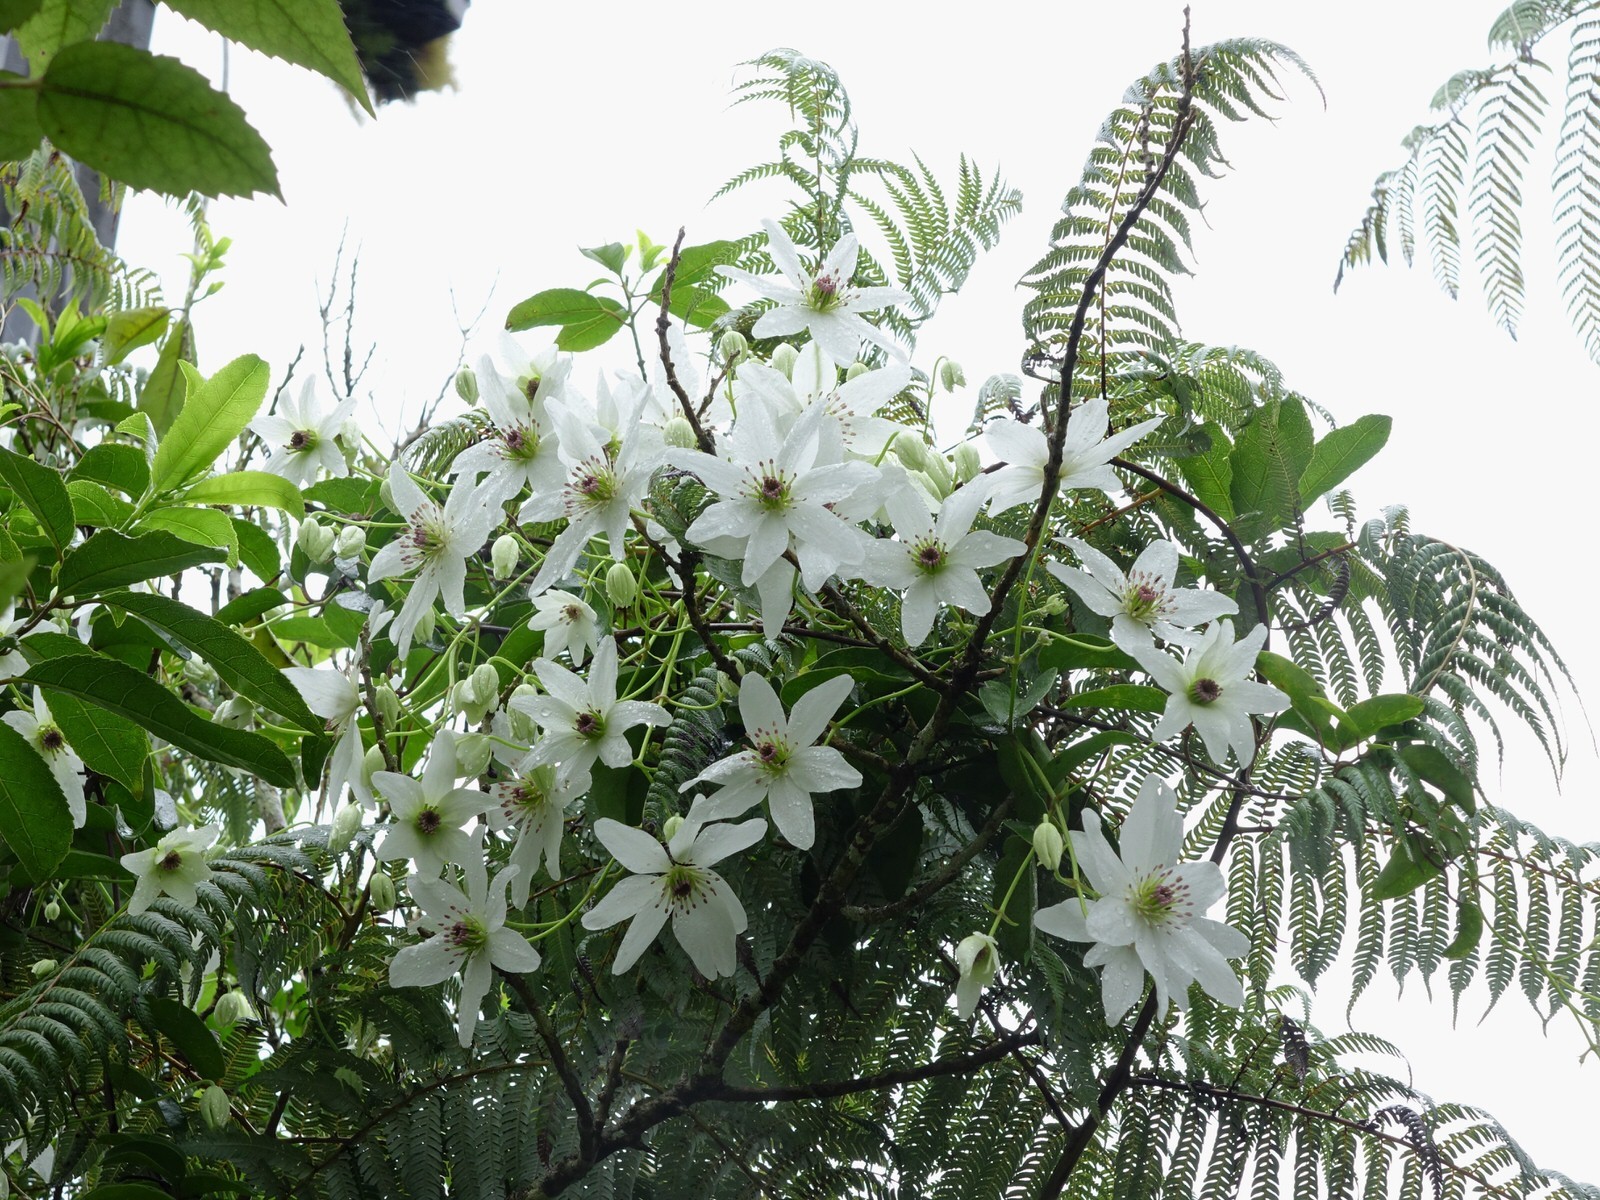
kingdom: Plantae
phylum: Tracheophyta
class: Magnoliopsida
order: Ranunculales
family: Ranunculaceae
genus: Clematis
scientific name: Clematis paniculata
